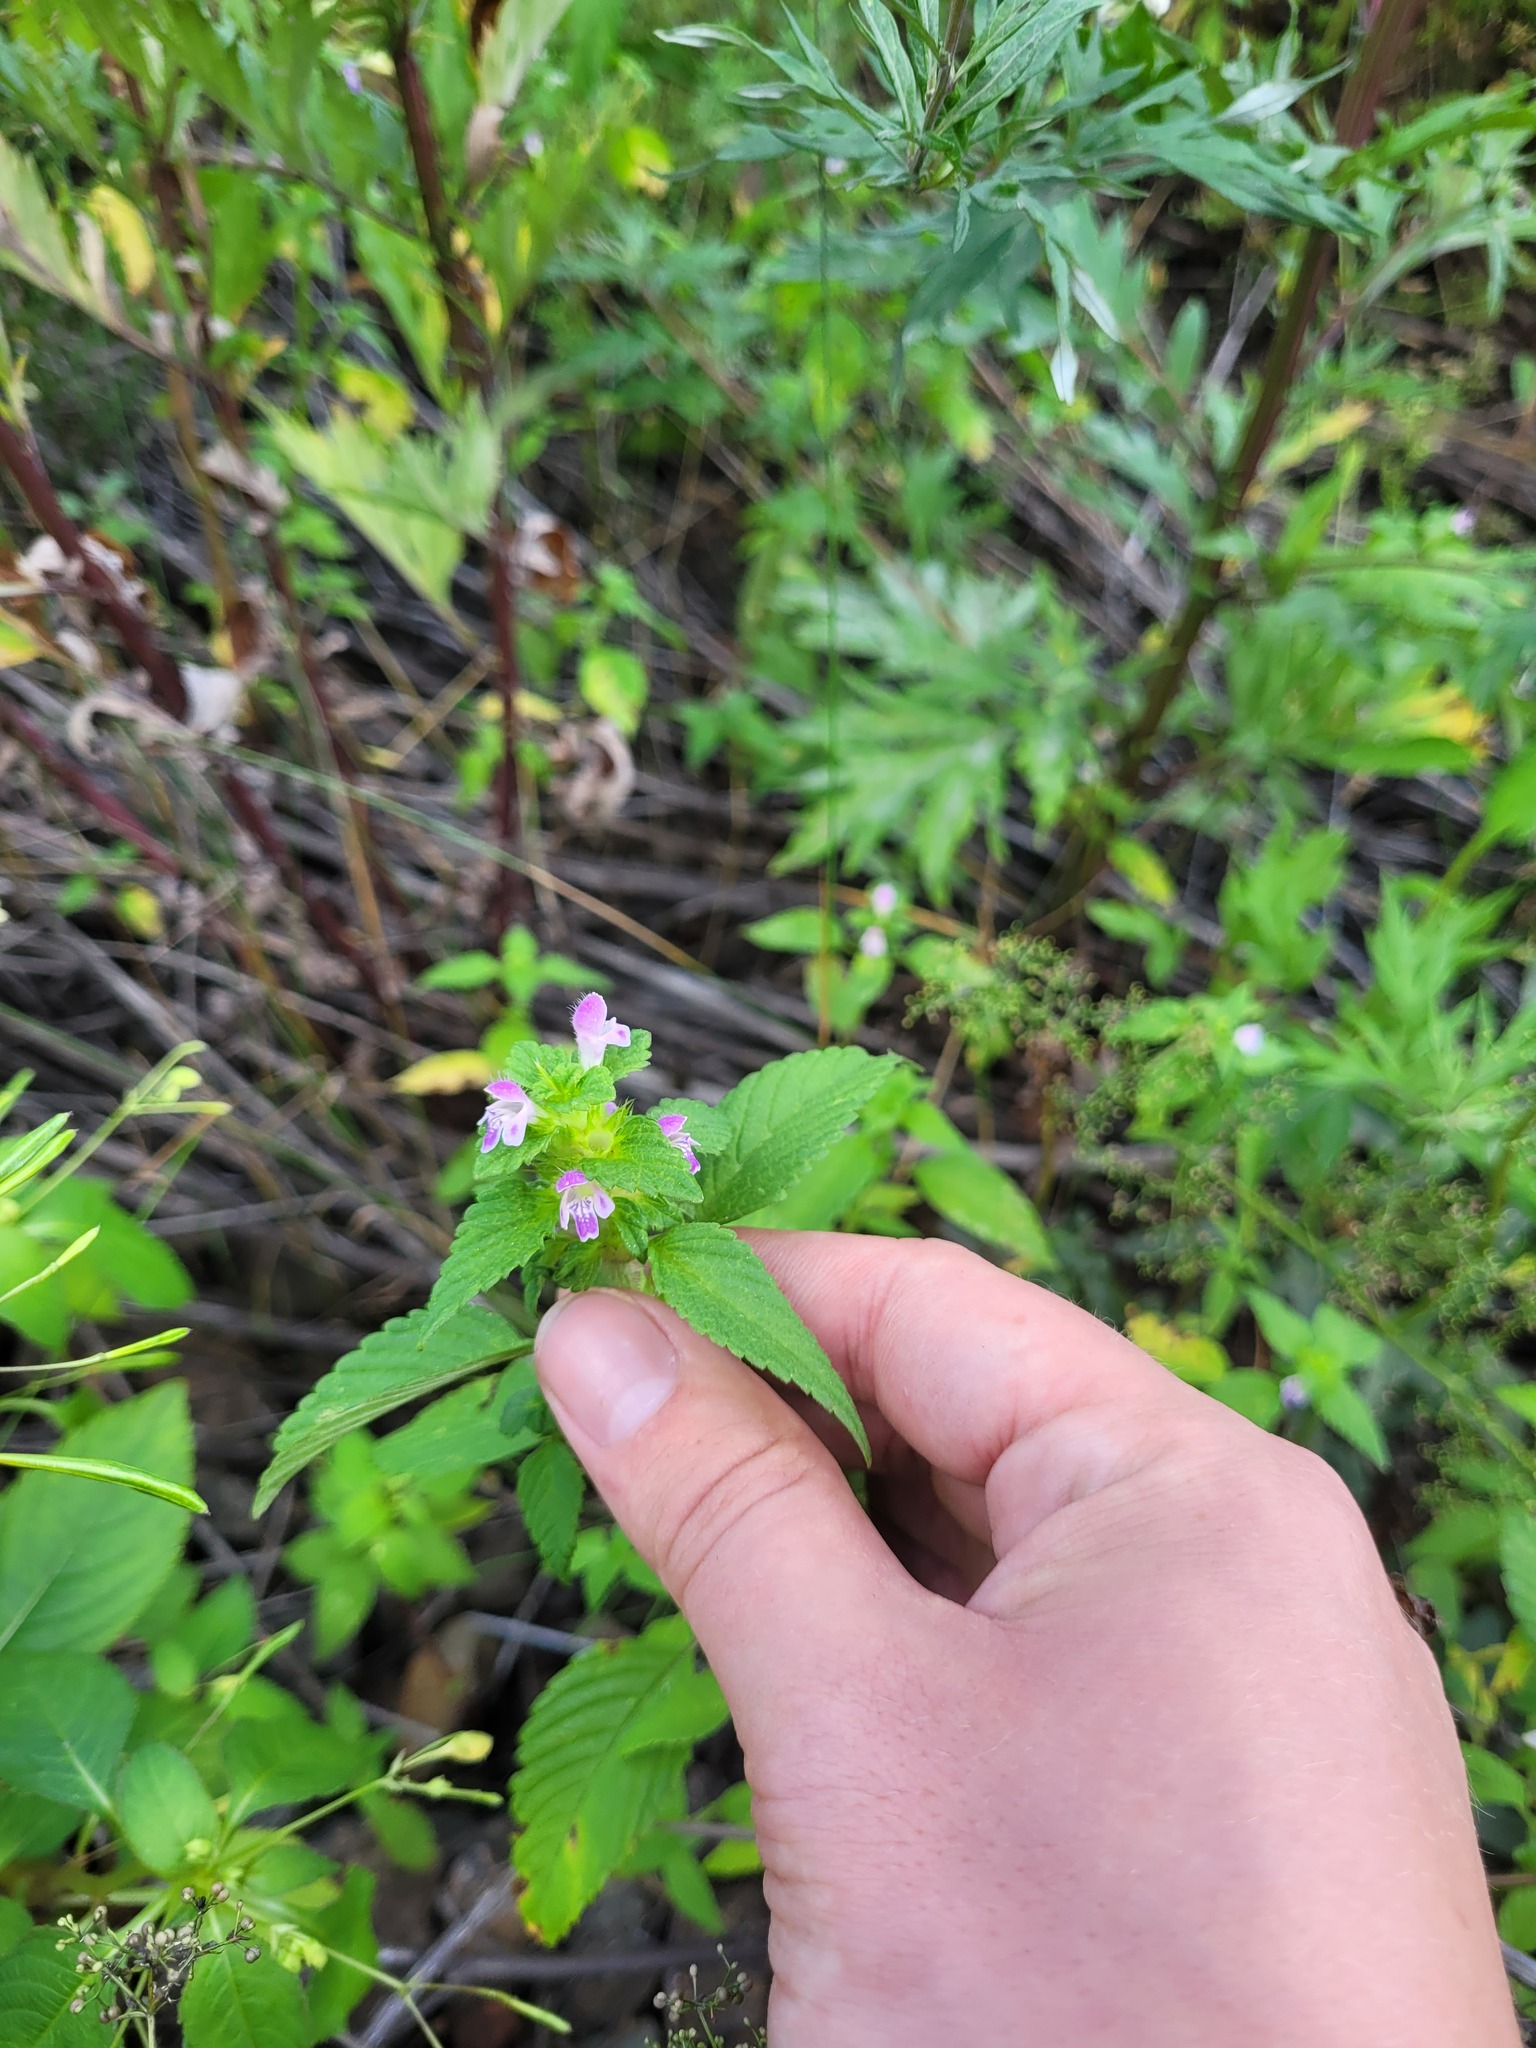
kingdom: Plantae
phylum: Tracheophyta
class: Magnoliopsida
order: Lamiales
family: Lamiaceae
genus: Galeopsis
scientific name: Galeopsis bifida
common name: Bifid hemp-nettle
